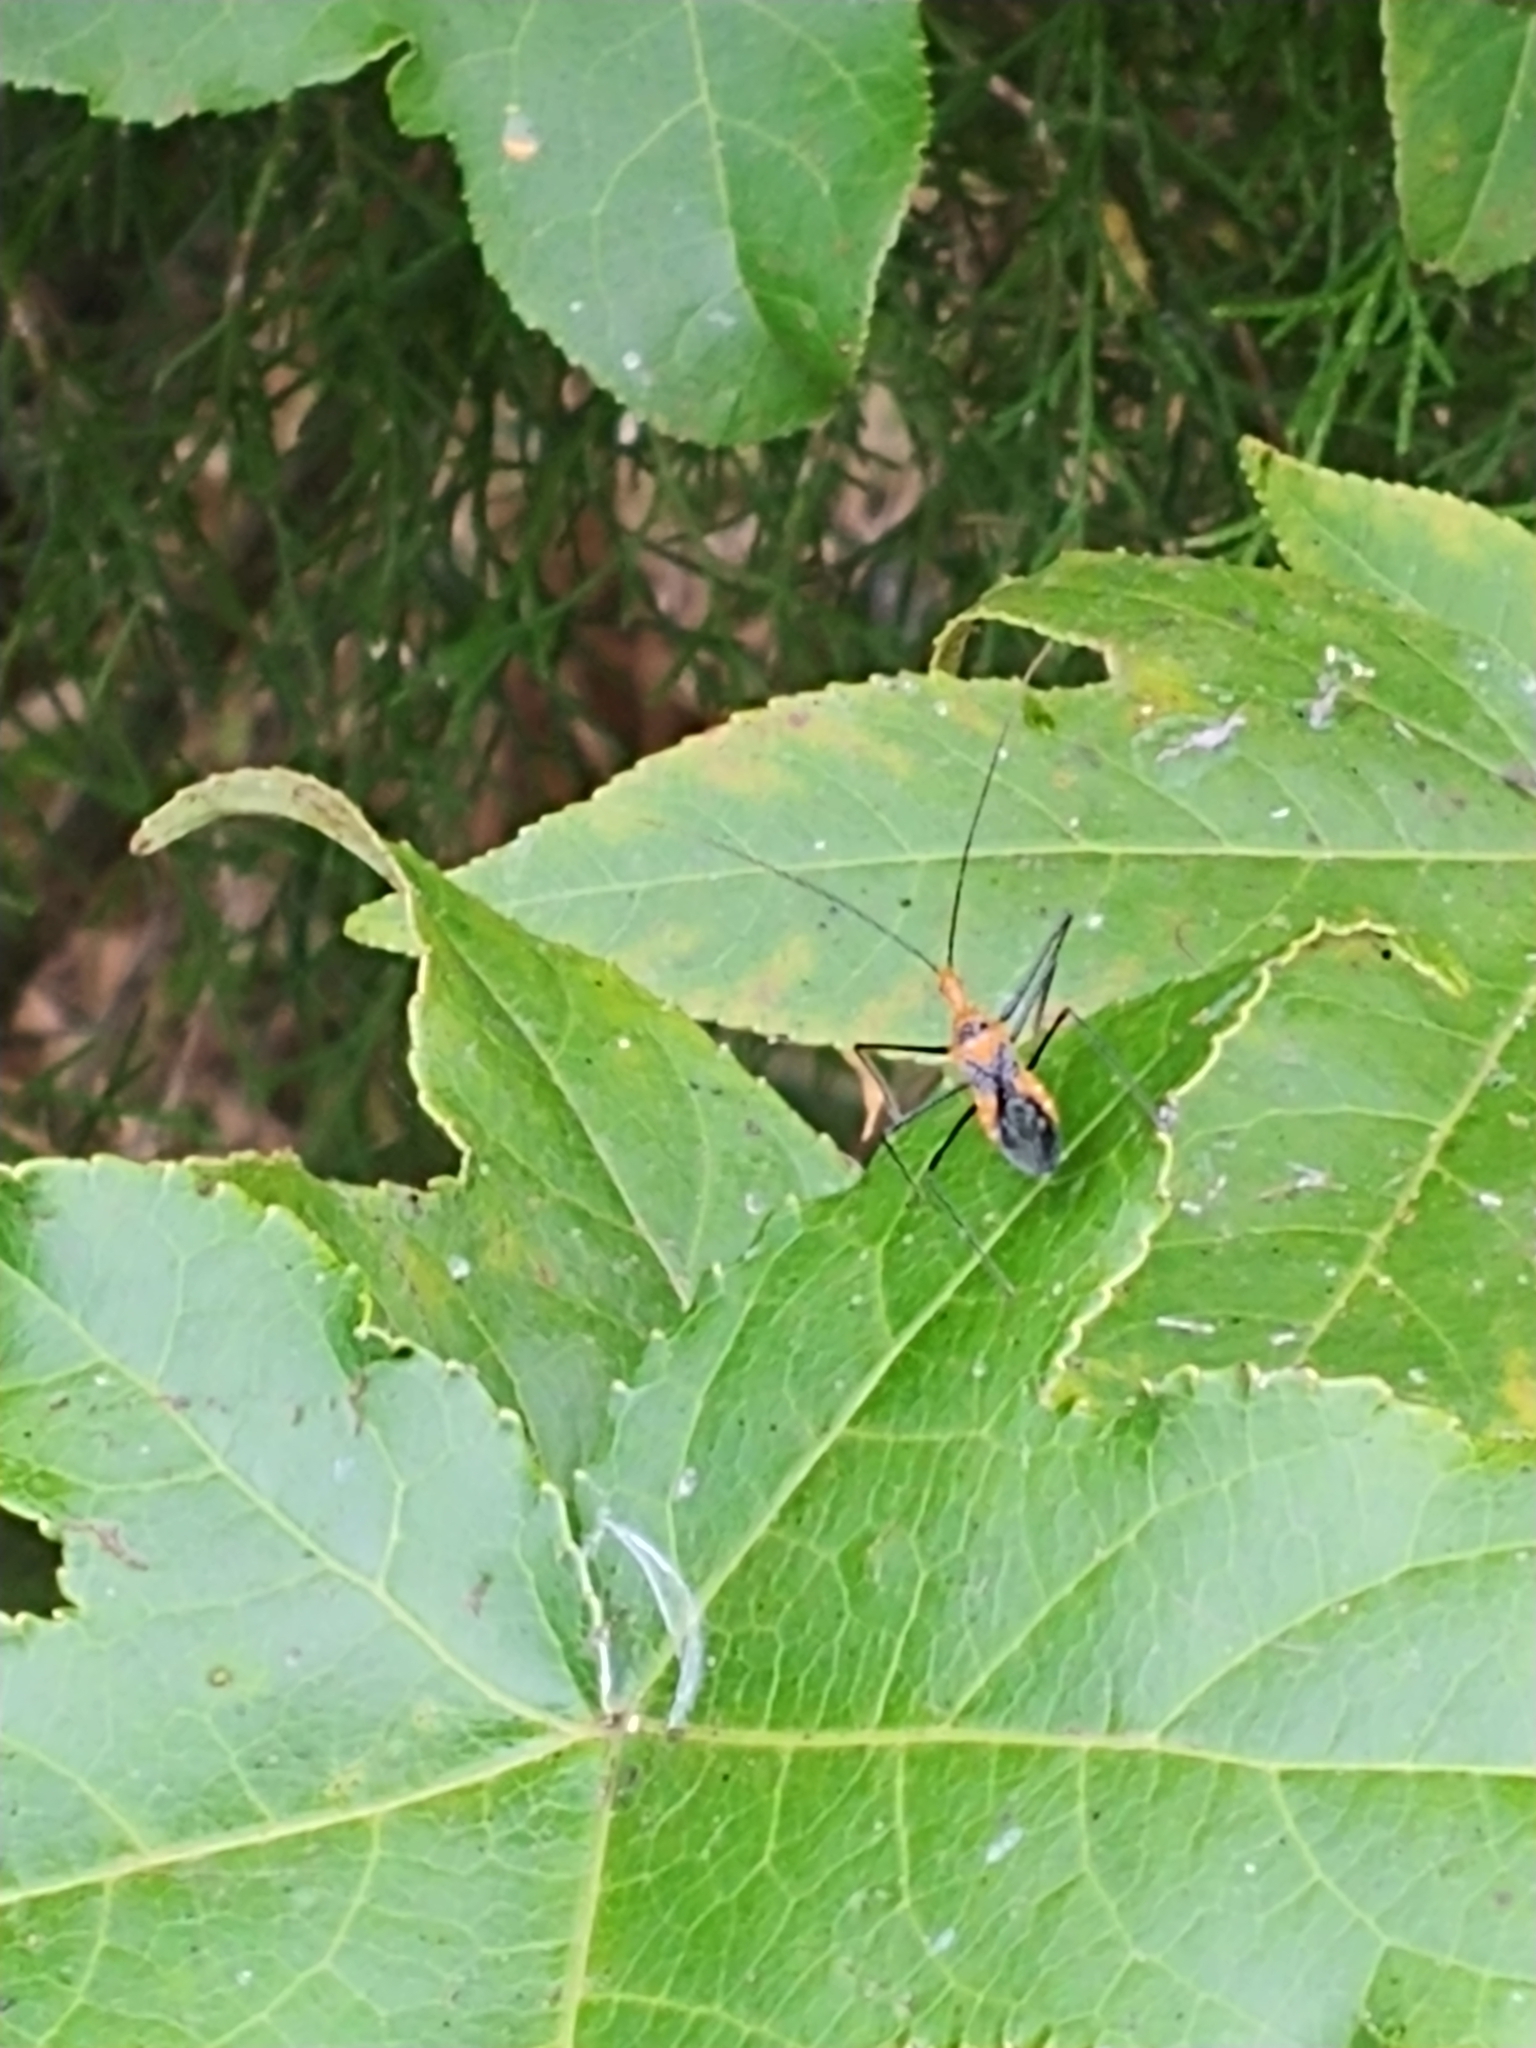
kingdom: Animalia
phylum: Arthropoda
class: Insecta
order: Hemiptera
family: Reduviidae
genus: Zelus
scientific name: Zelus longipes
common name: Milkweed assassin bug
